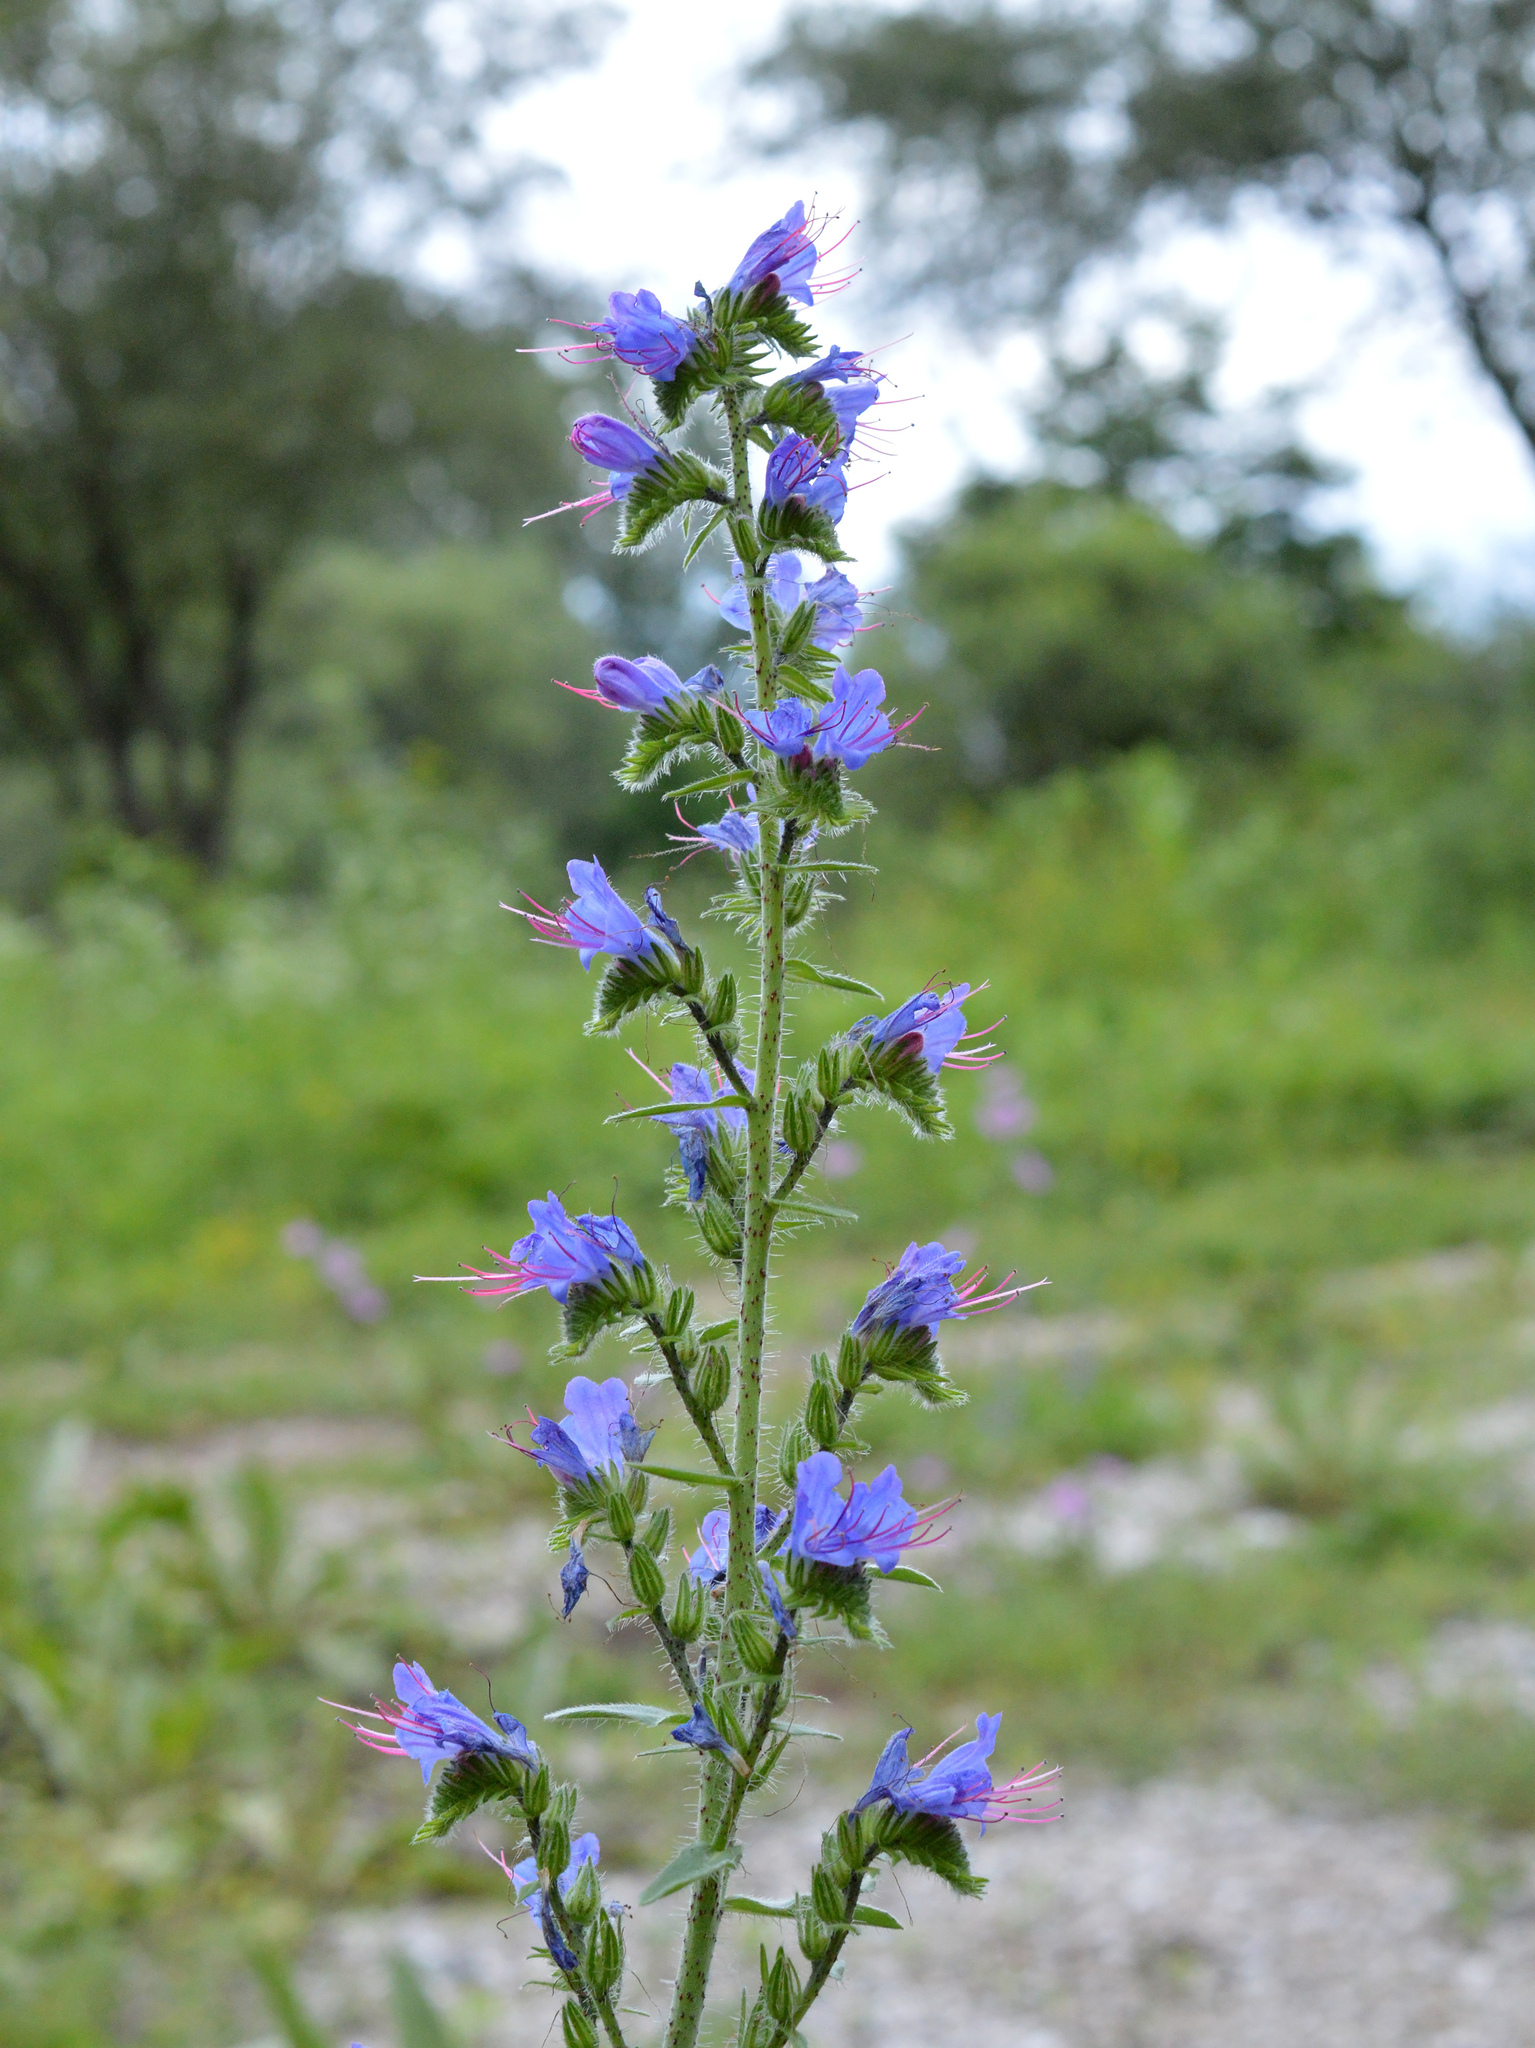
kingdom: Plantae
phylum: Tracheophyta
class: Magnoliopsida
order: Boraginales
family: Boraginaceae
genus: Echium
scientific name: Echium vulgare
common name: Common viper's bugloss
